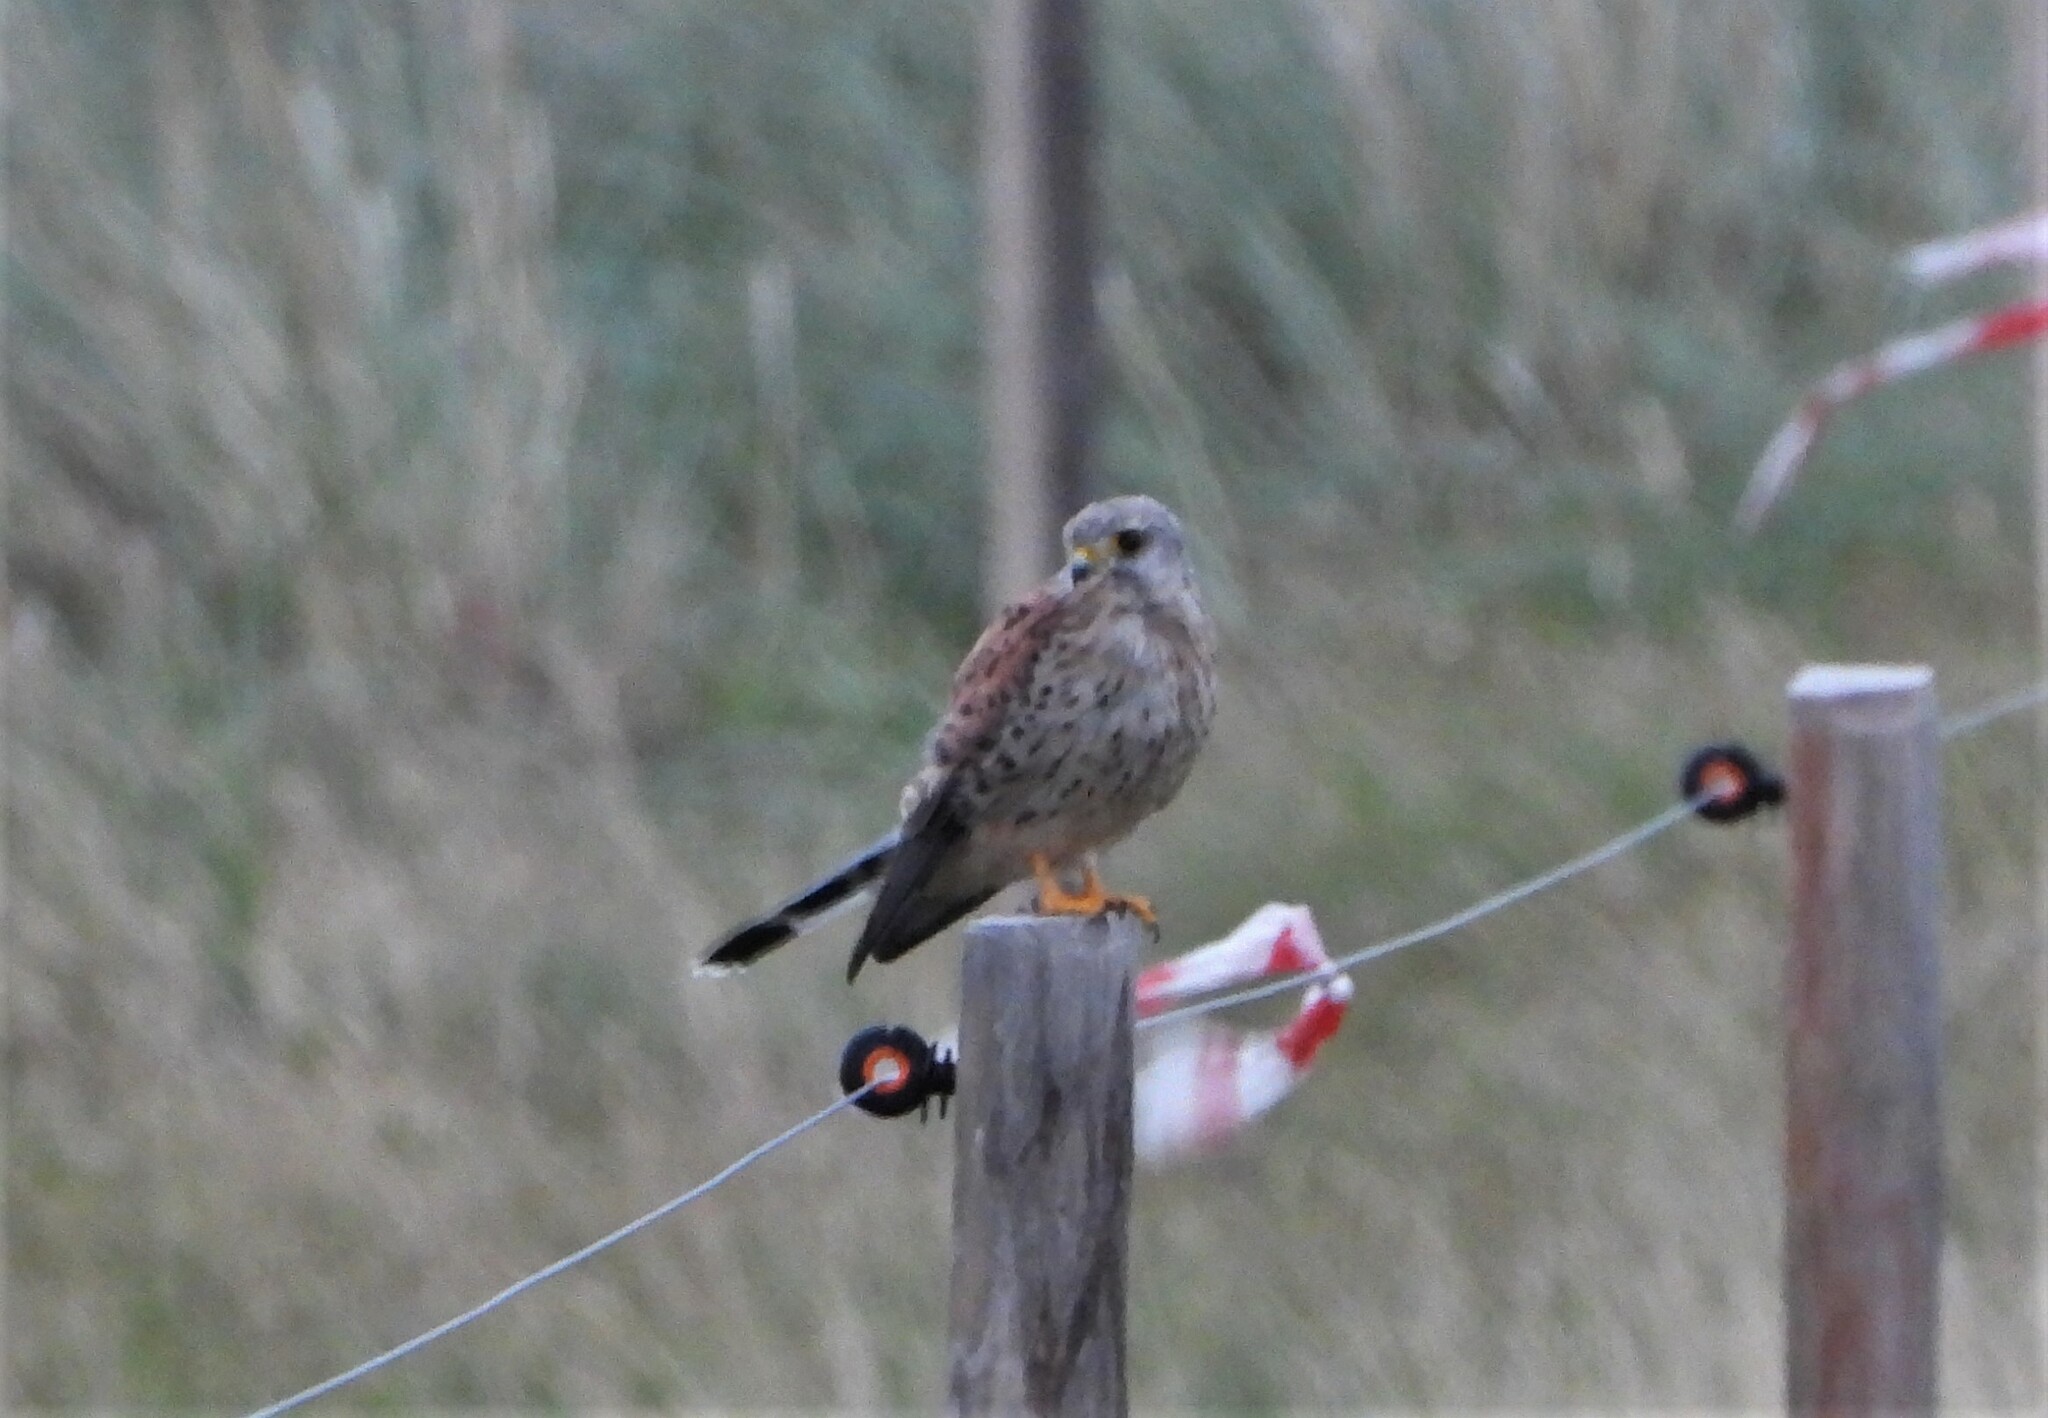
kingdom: Animalia
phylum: Chordata
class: Aves
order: Falconiformes
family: Falconidae
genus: Falco
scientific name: Falco tinnunculus
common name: Common kestrel
